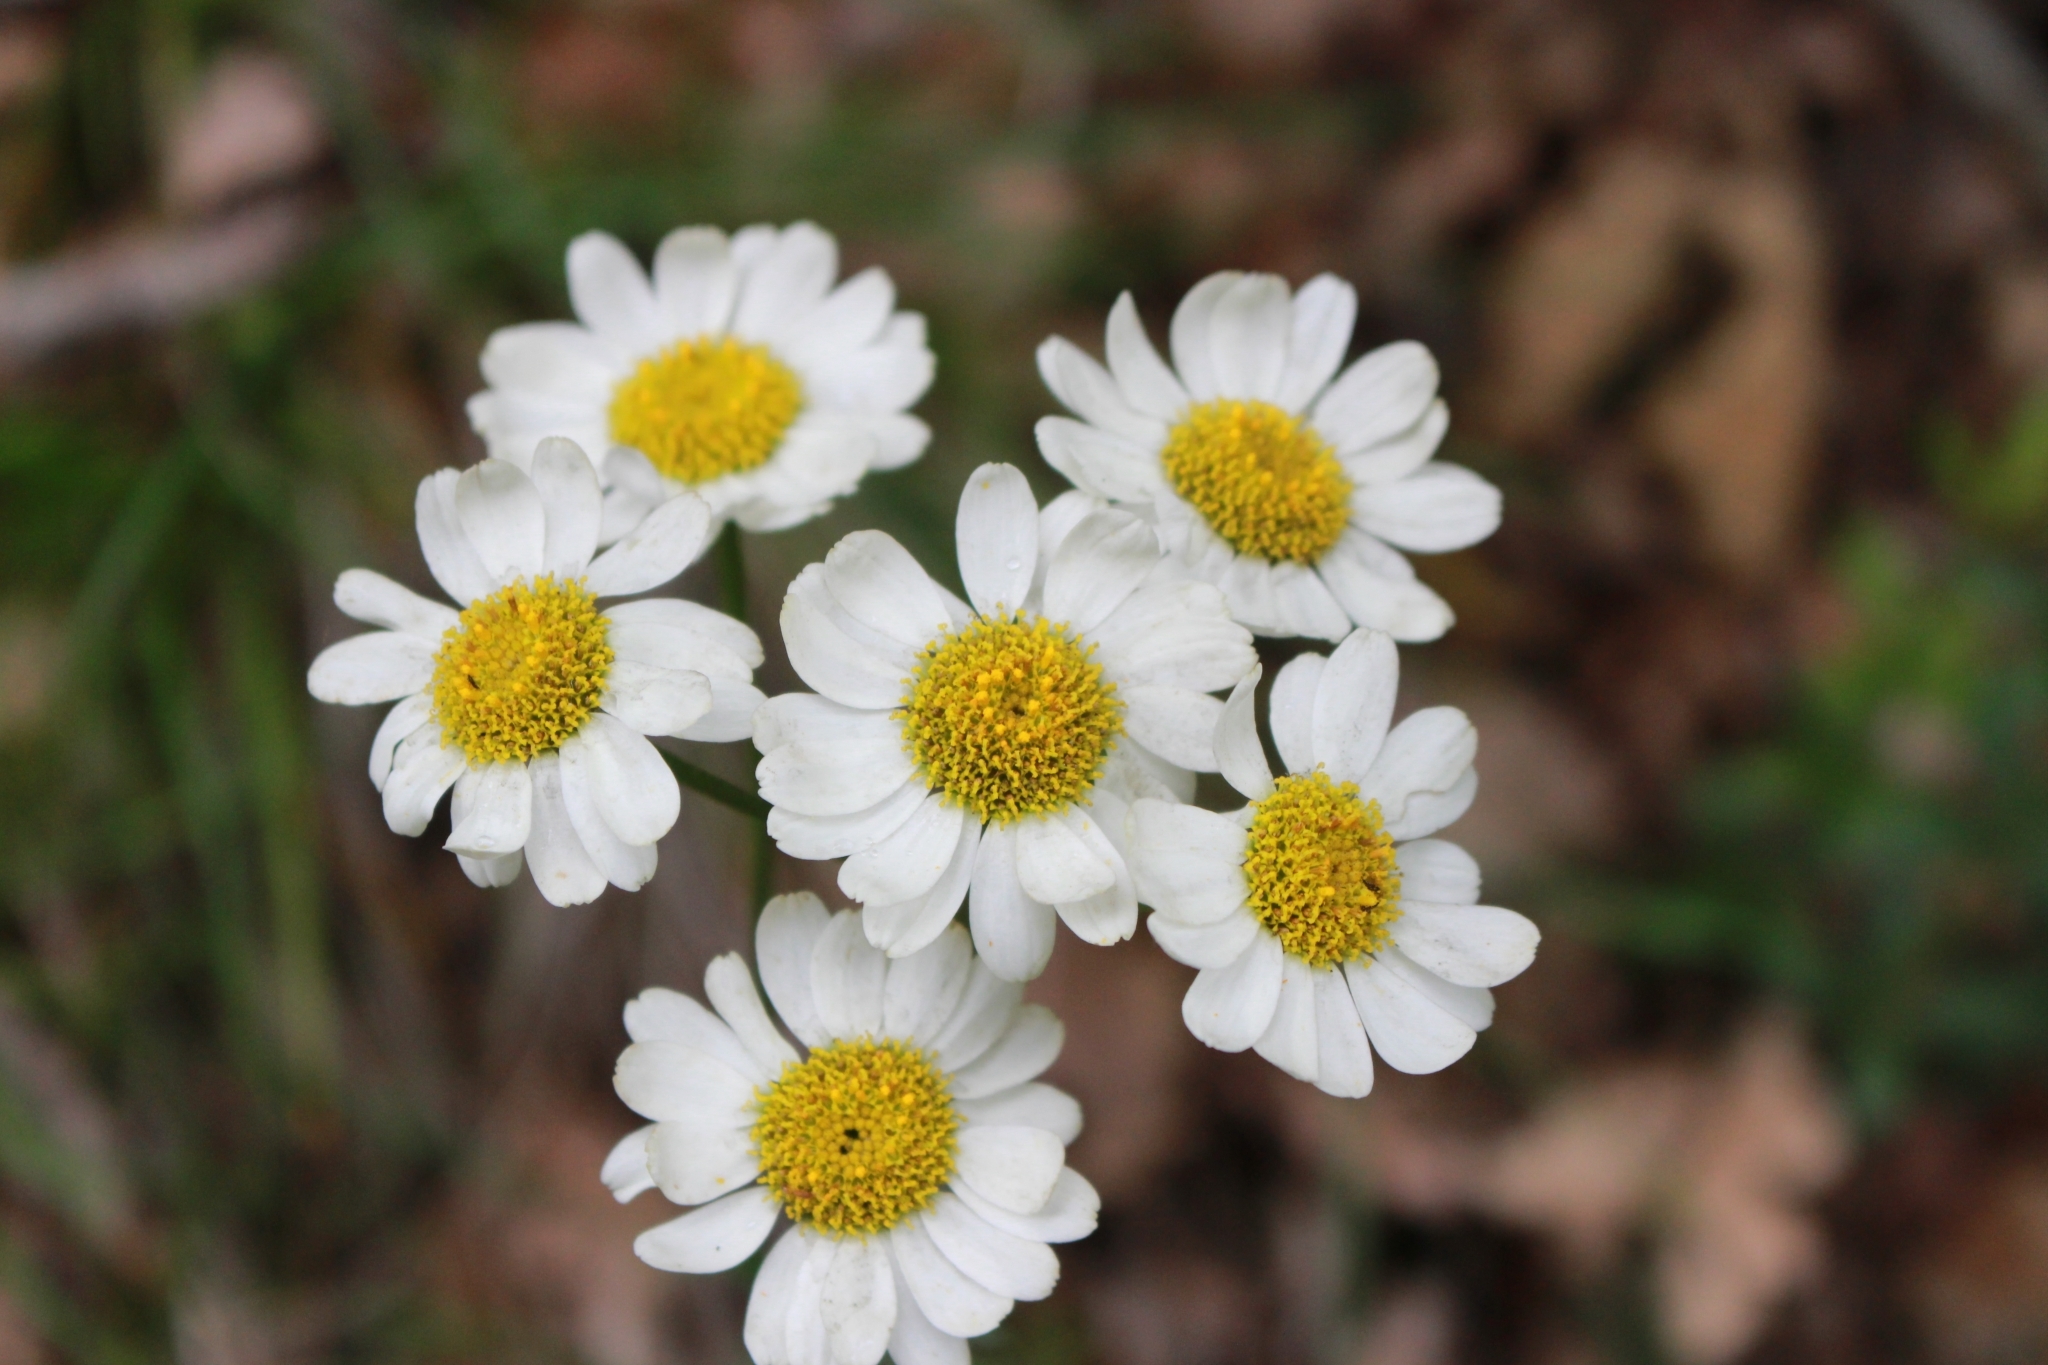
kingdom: Plantae
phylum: Tracheophyta
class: Magnoliopsida
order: Asterales
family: Asteraceae
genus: Tanacetum
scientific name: Tanacetum corymbosum
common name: Scentless feverfew
